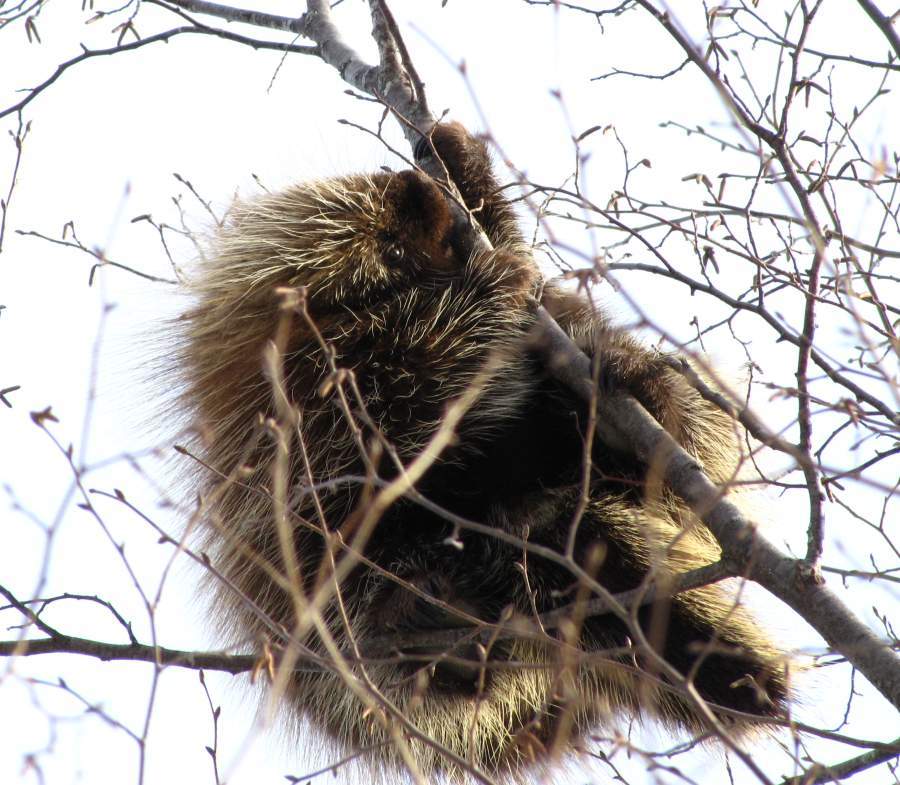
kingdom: Animalia
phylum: Chordata
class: Mammalia
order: Rodentia
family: Erethizontidae
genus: Erethizon
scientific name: Erethizon dorsatus
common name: North american porcupine
